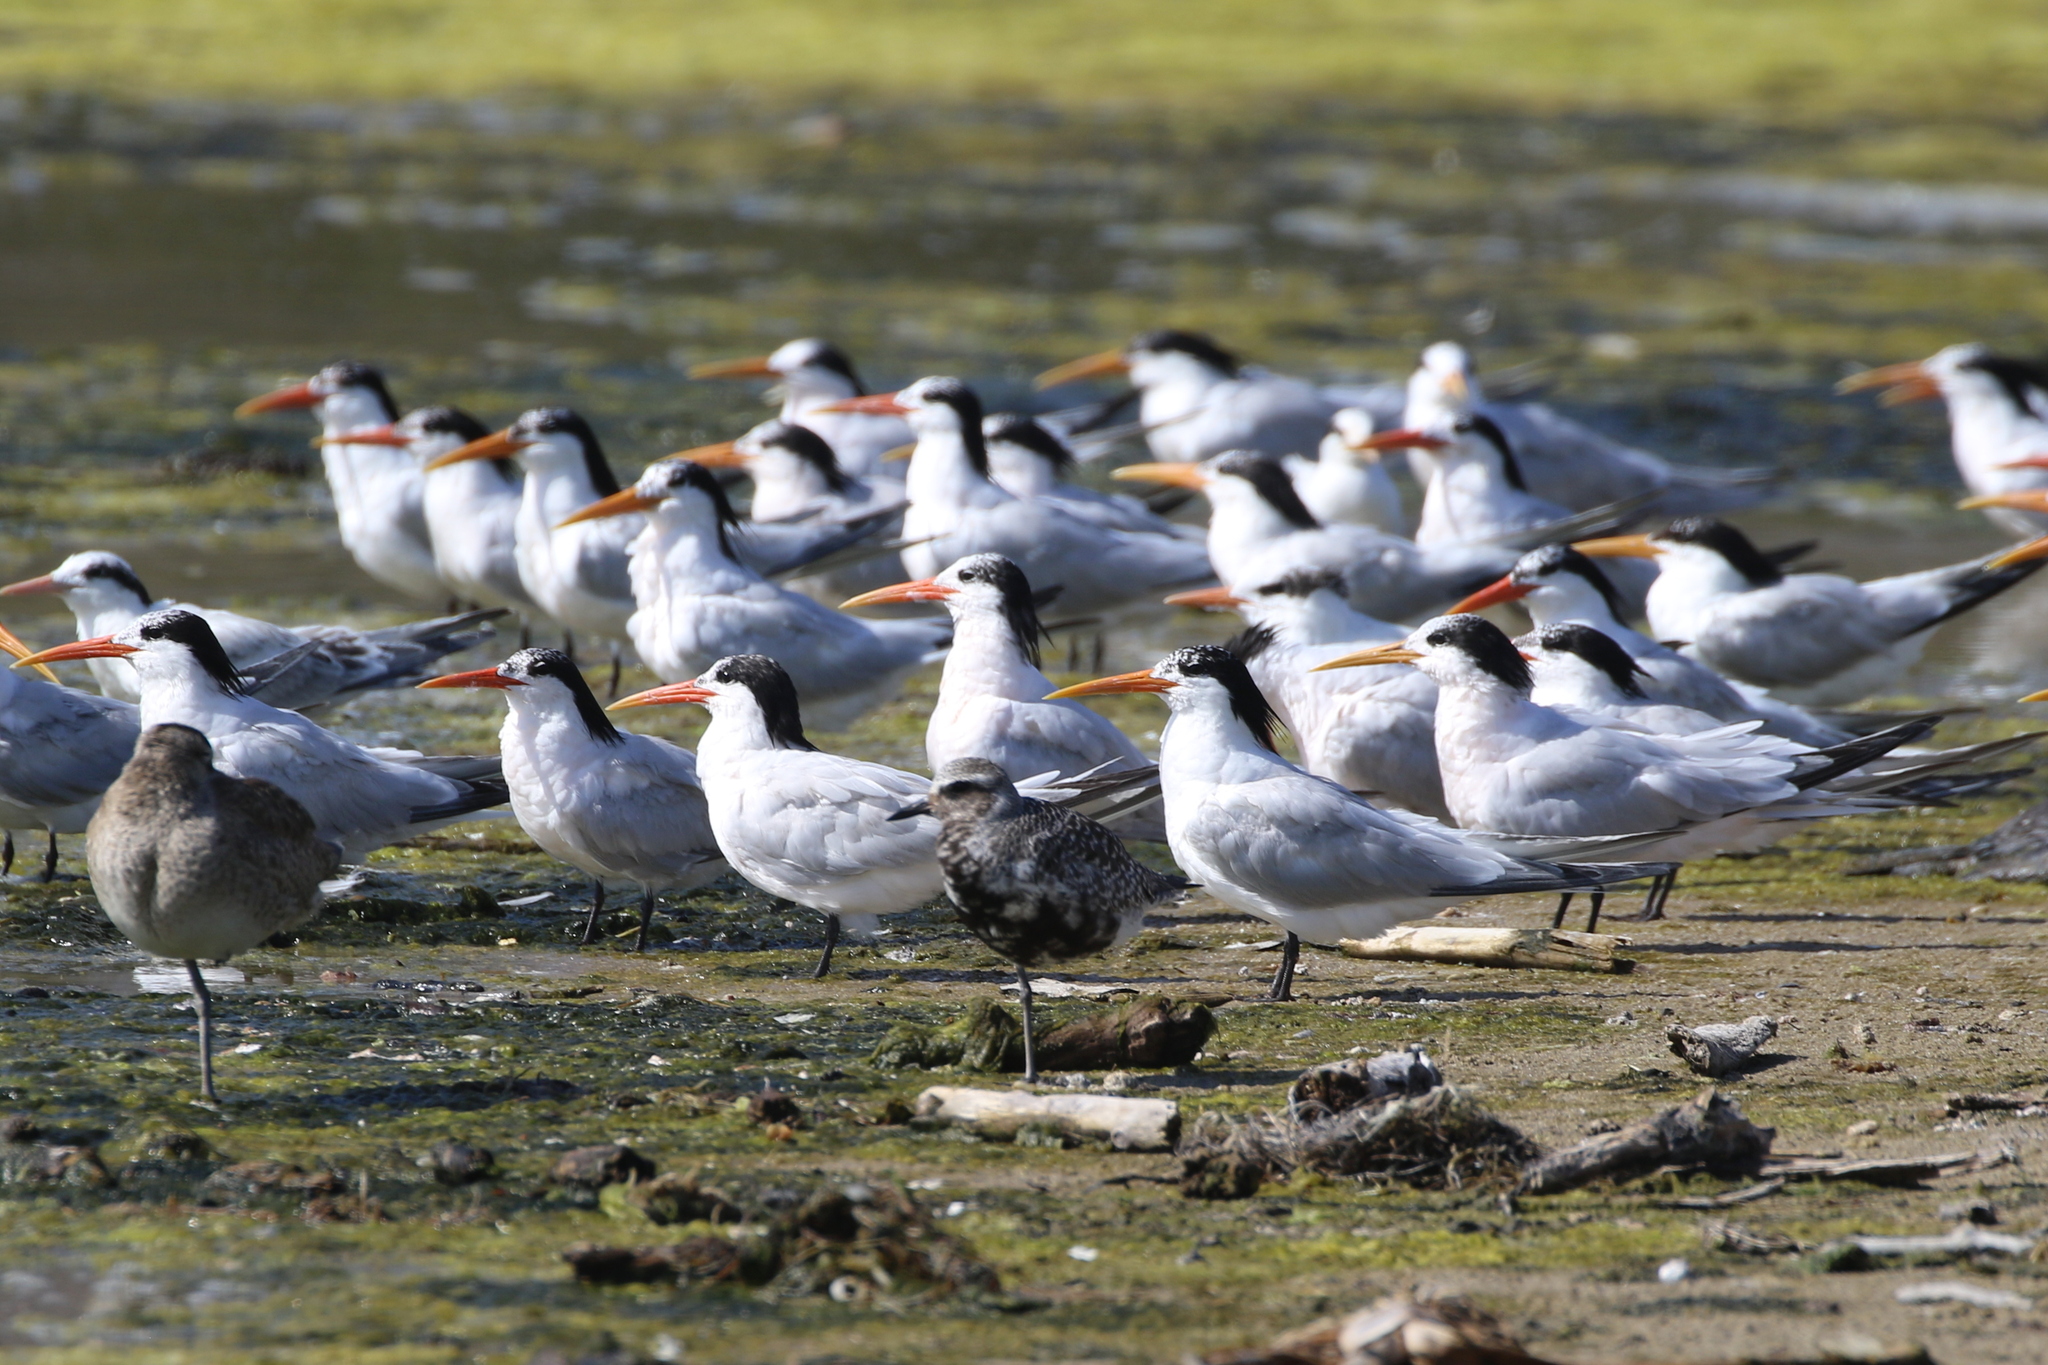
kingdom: Animalia
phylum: Chordata
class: Aves
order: Charadriiformes
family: Laridae
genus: Thalasseus
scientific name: Thalasseus elegans
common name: Elegant tern
